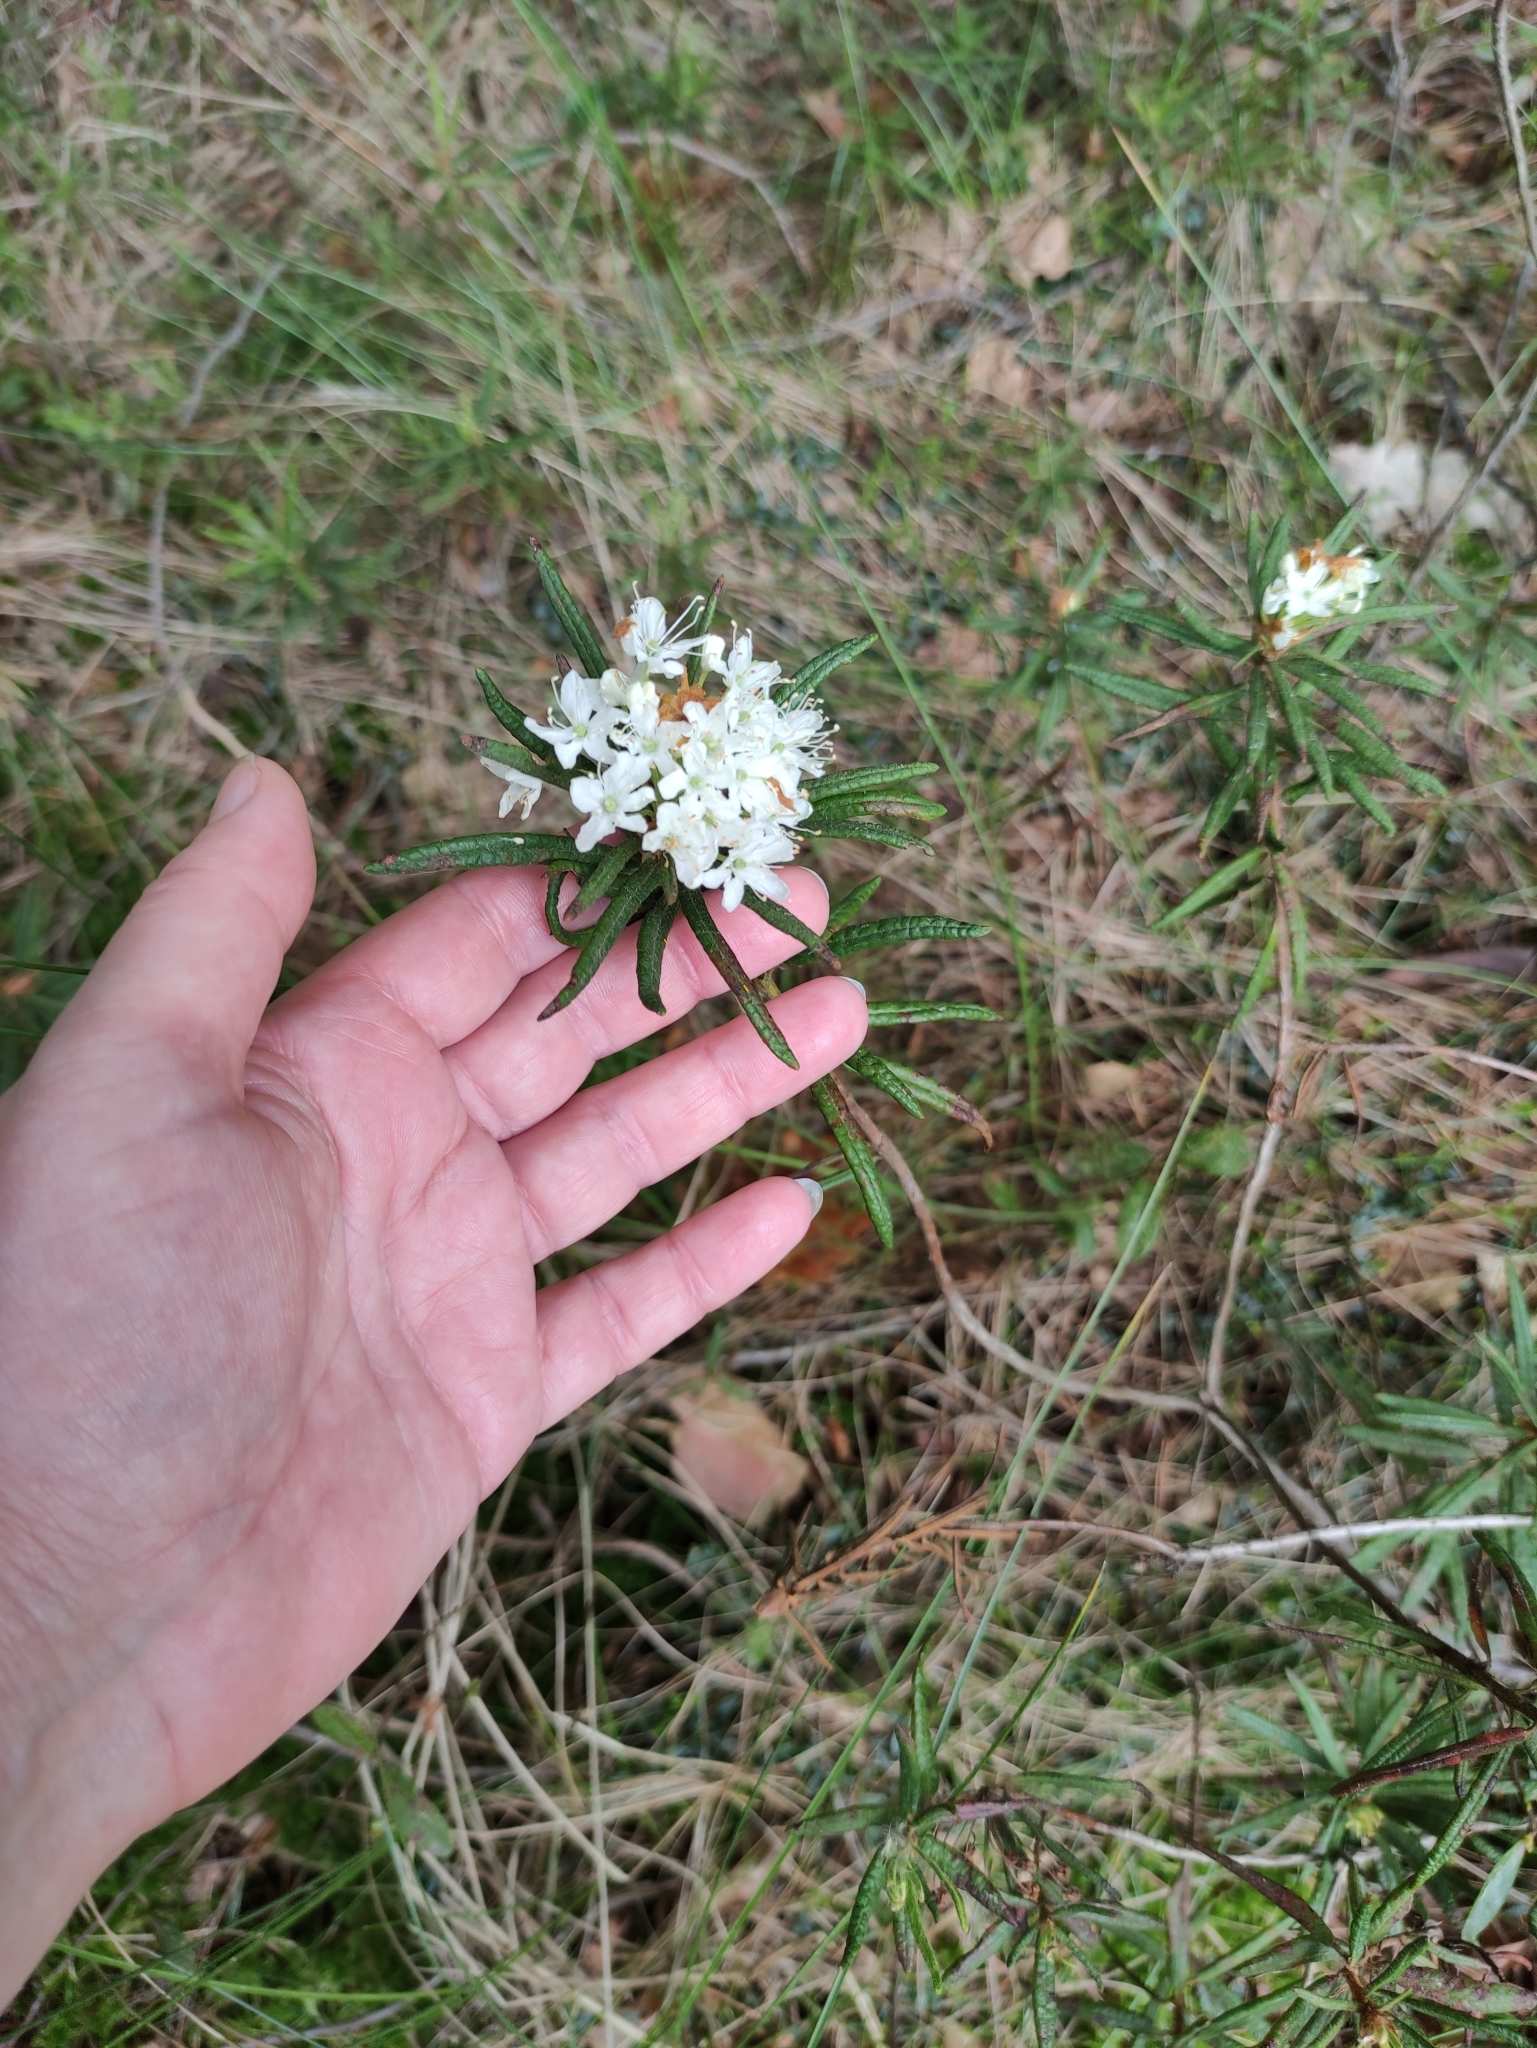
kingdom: Plantae
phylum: Tracheophyta
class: Magnoliopsida
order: Ericales
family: Ericaceae
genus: Rhododendron
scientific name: Rhododendron tomentosum
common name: Marsh labrador tea
